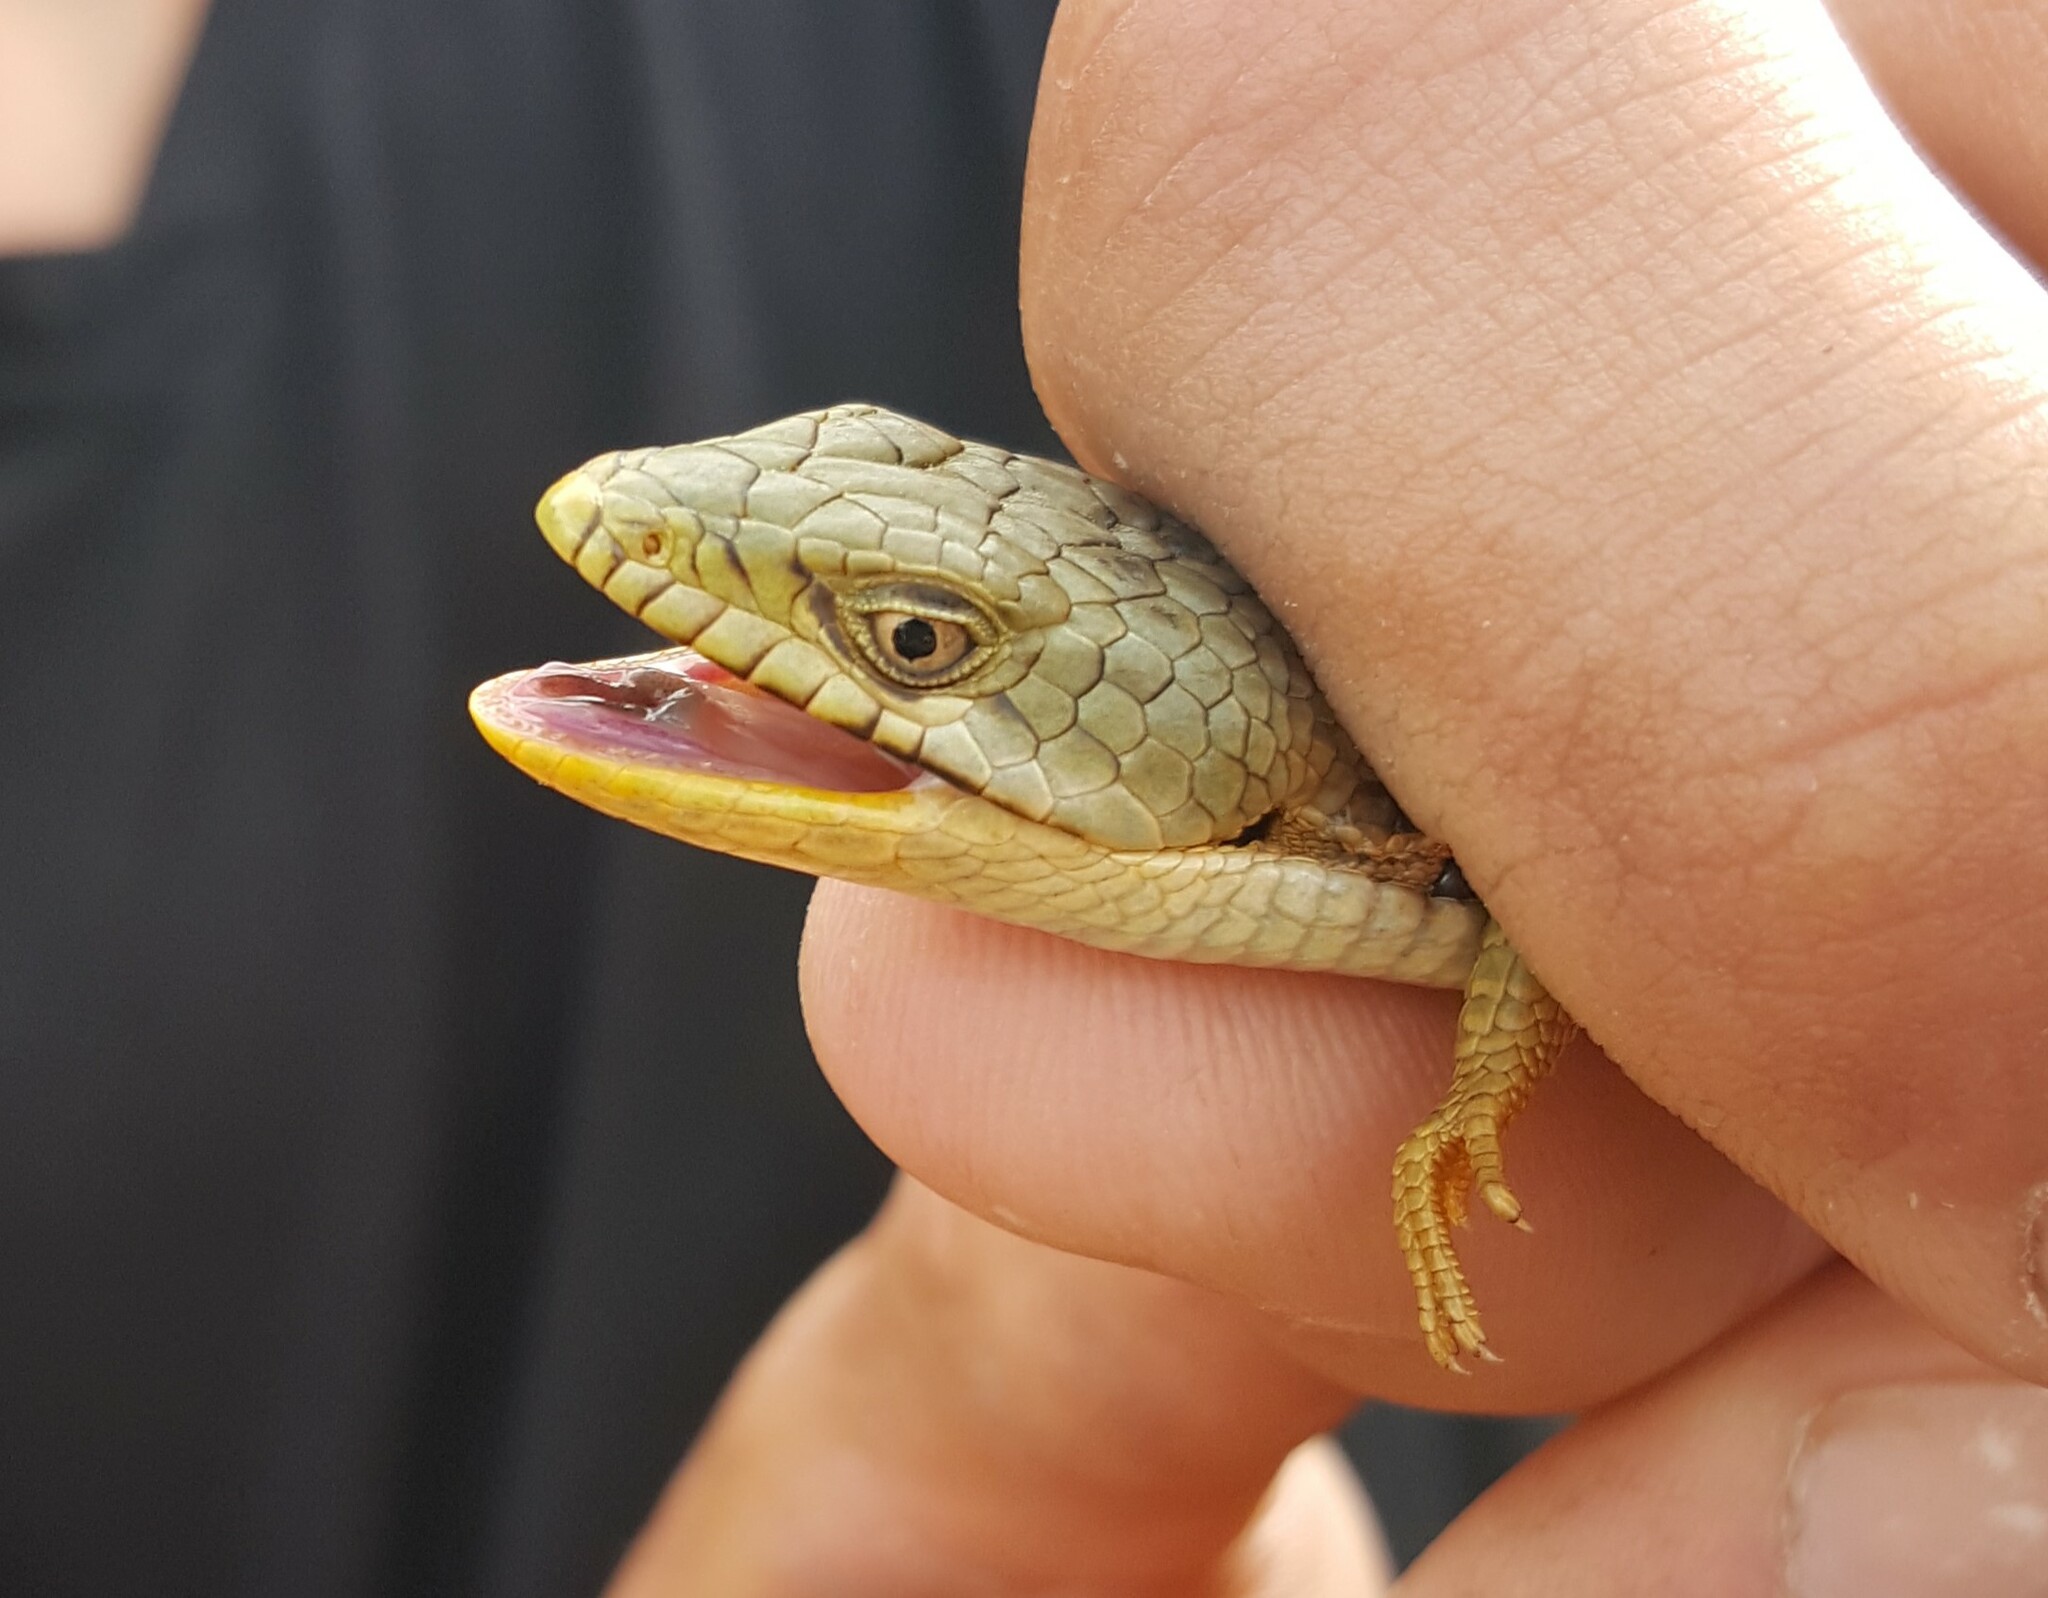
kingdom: Animalia
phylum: Chordata
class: Squamata
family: Anguidae
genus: Elgaria
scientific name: Elgaria multicarinata
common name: Southern alligator lizard
